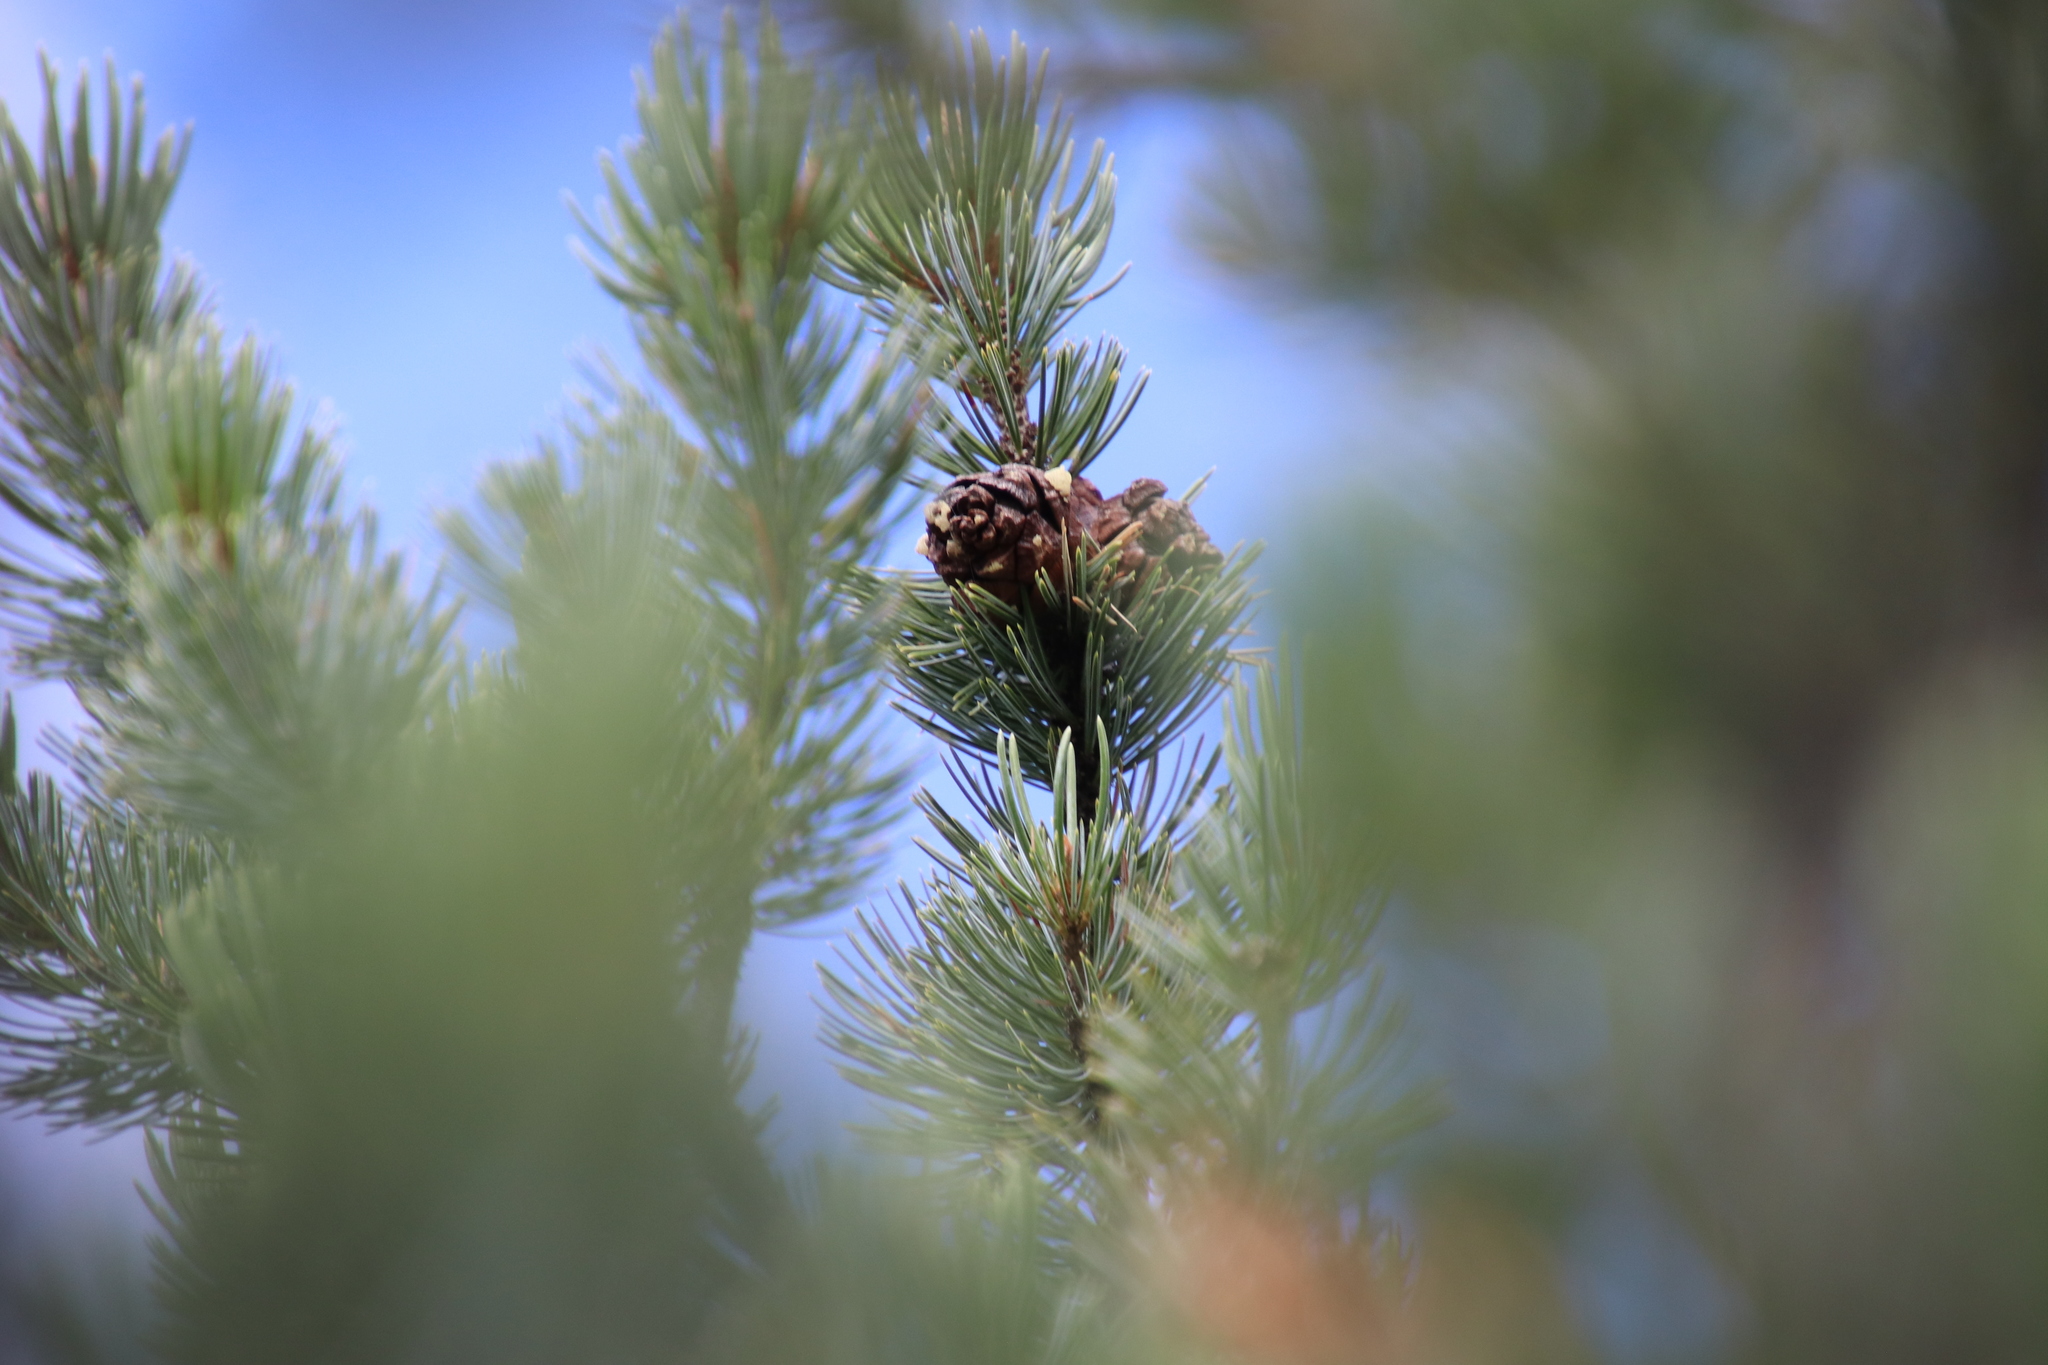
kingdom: Plantae
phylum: Tracheophyta
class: Pinopsida
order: Pinales
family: Pinaceae
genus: Pinus
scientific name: Pinus cembroides
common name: Mexican nut pine
